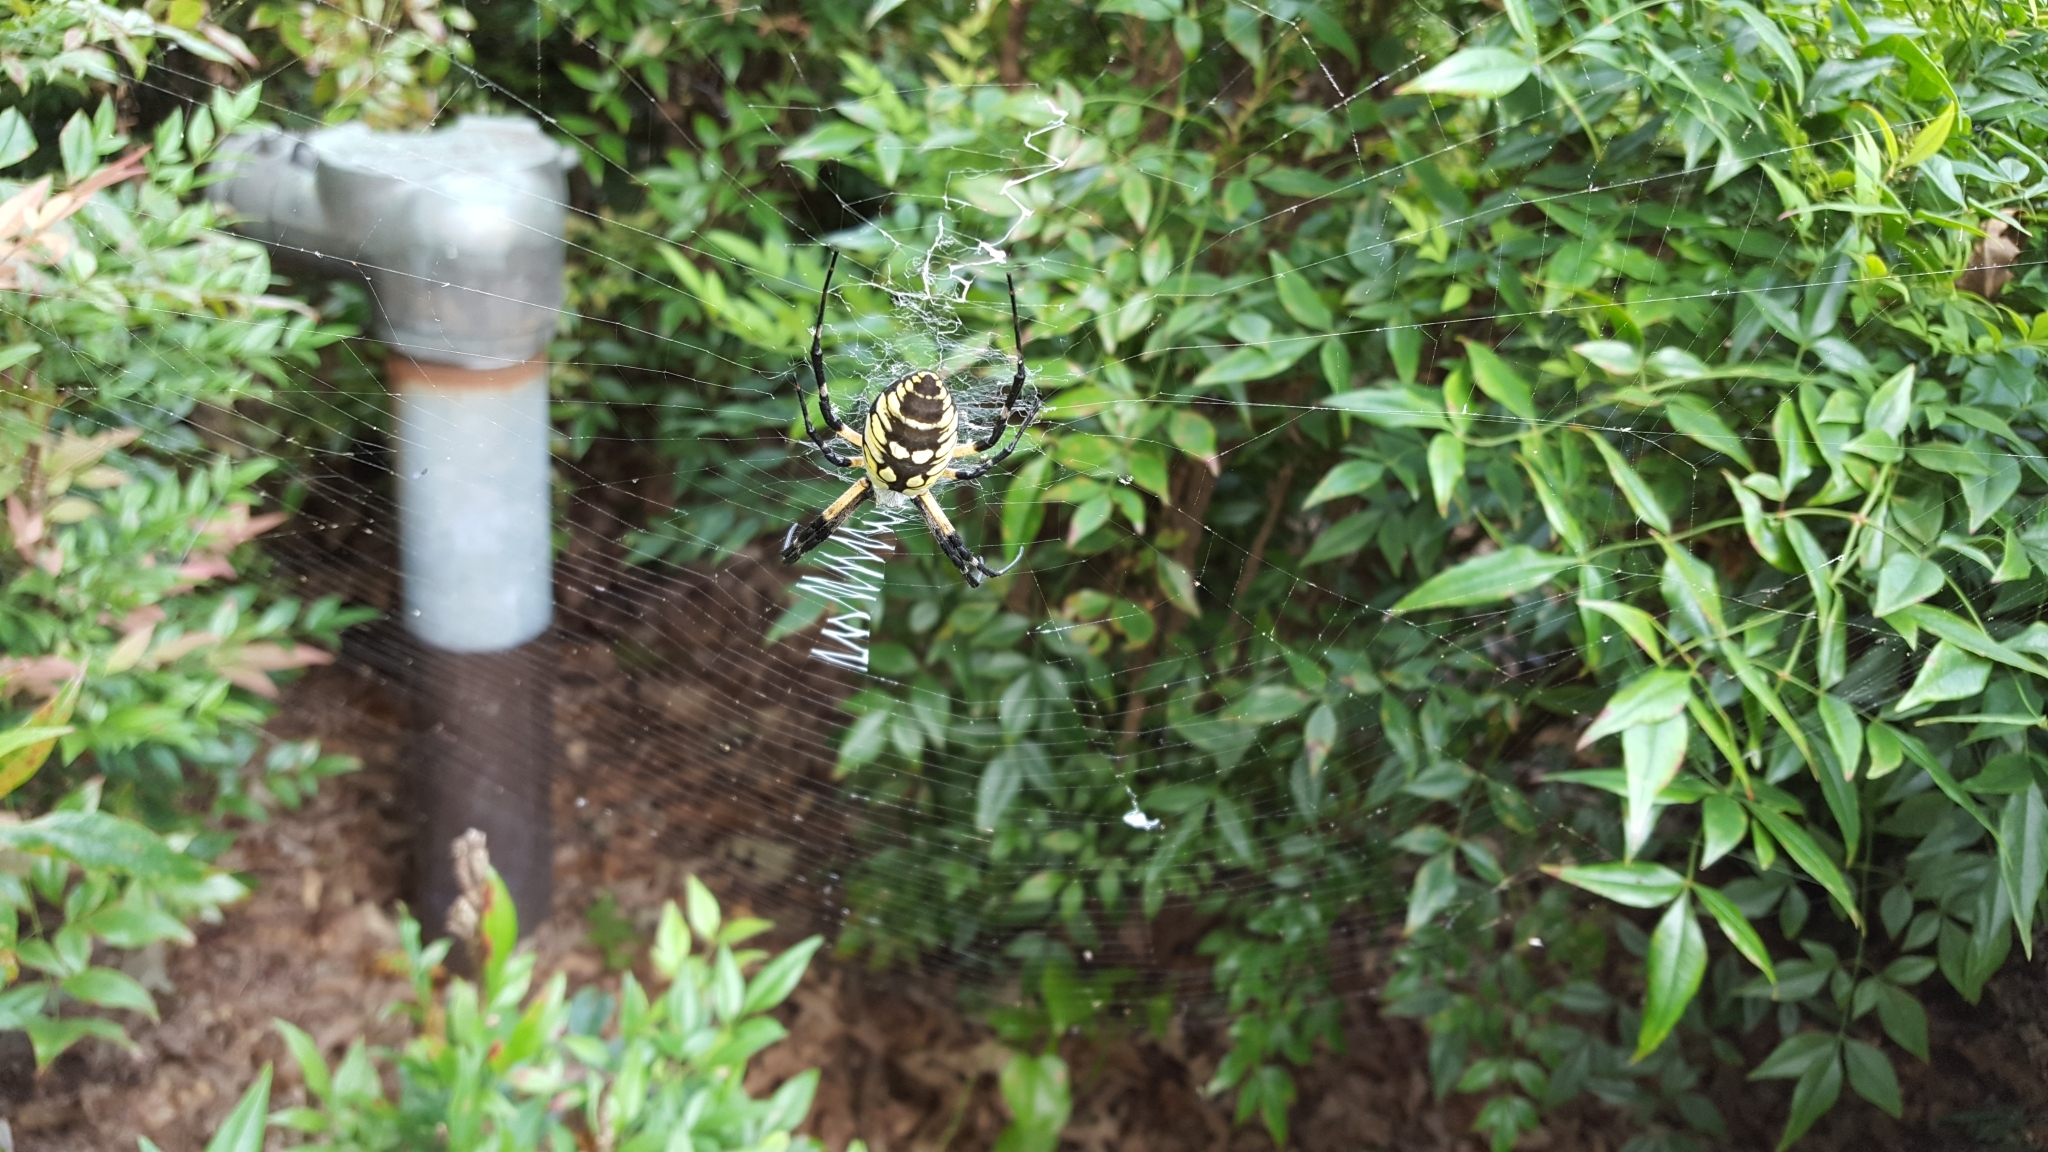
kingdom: Animalia
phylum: Arthropoda
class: Arachnida
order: Araneae
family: Araneidae
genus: Argiope
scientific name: Argiope aurantia
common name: Orb weavers
